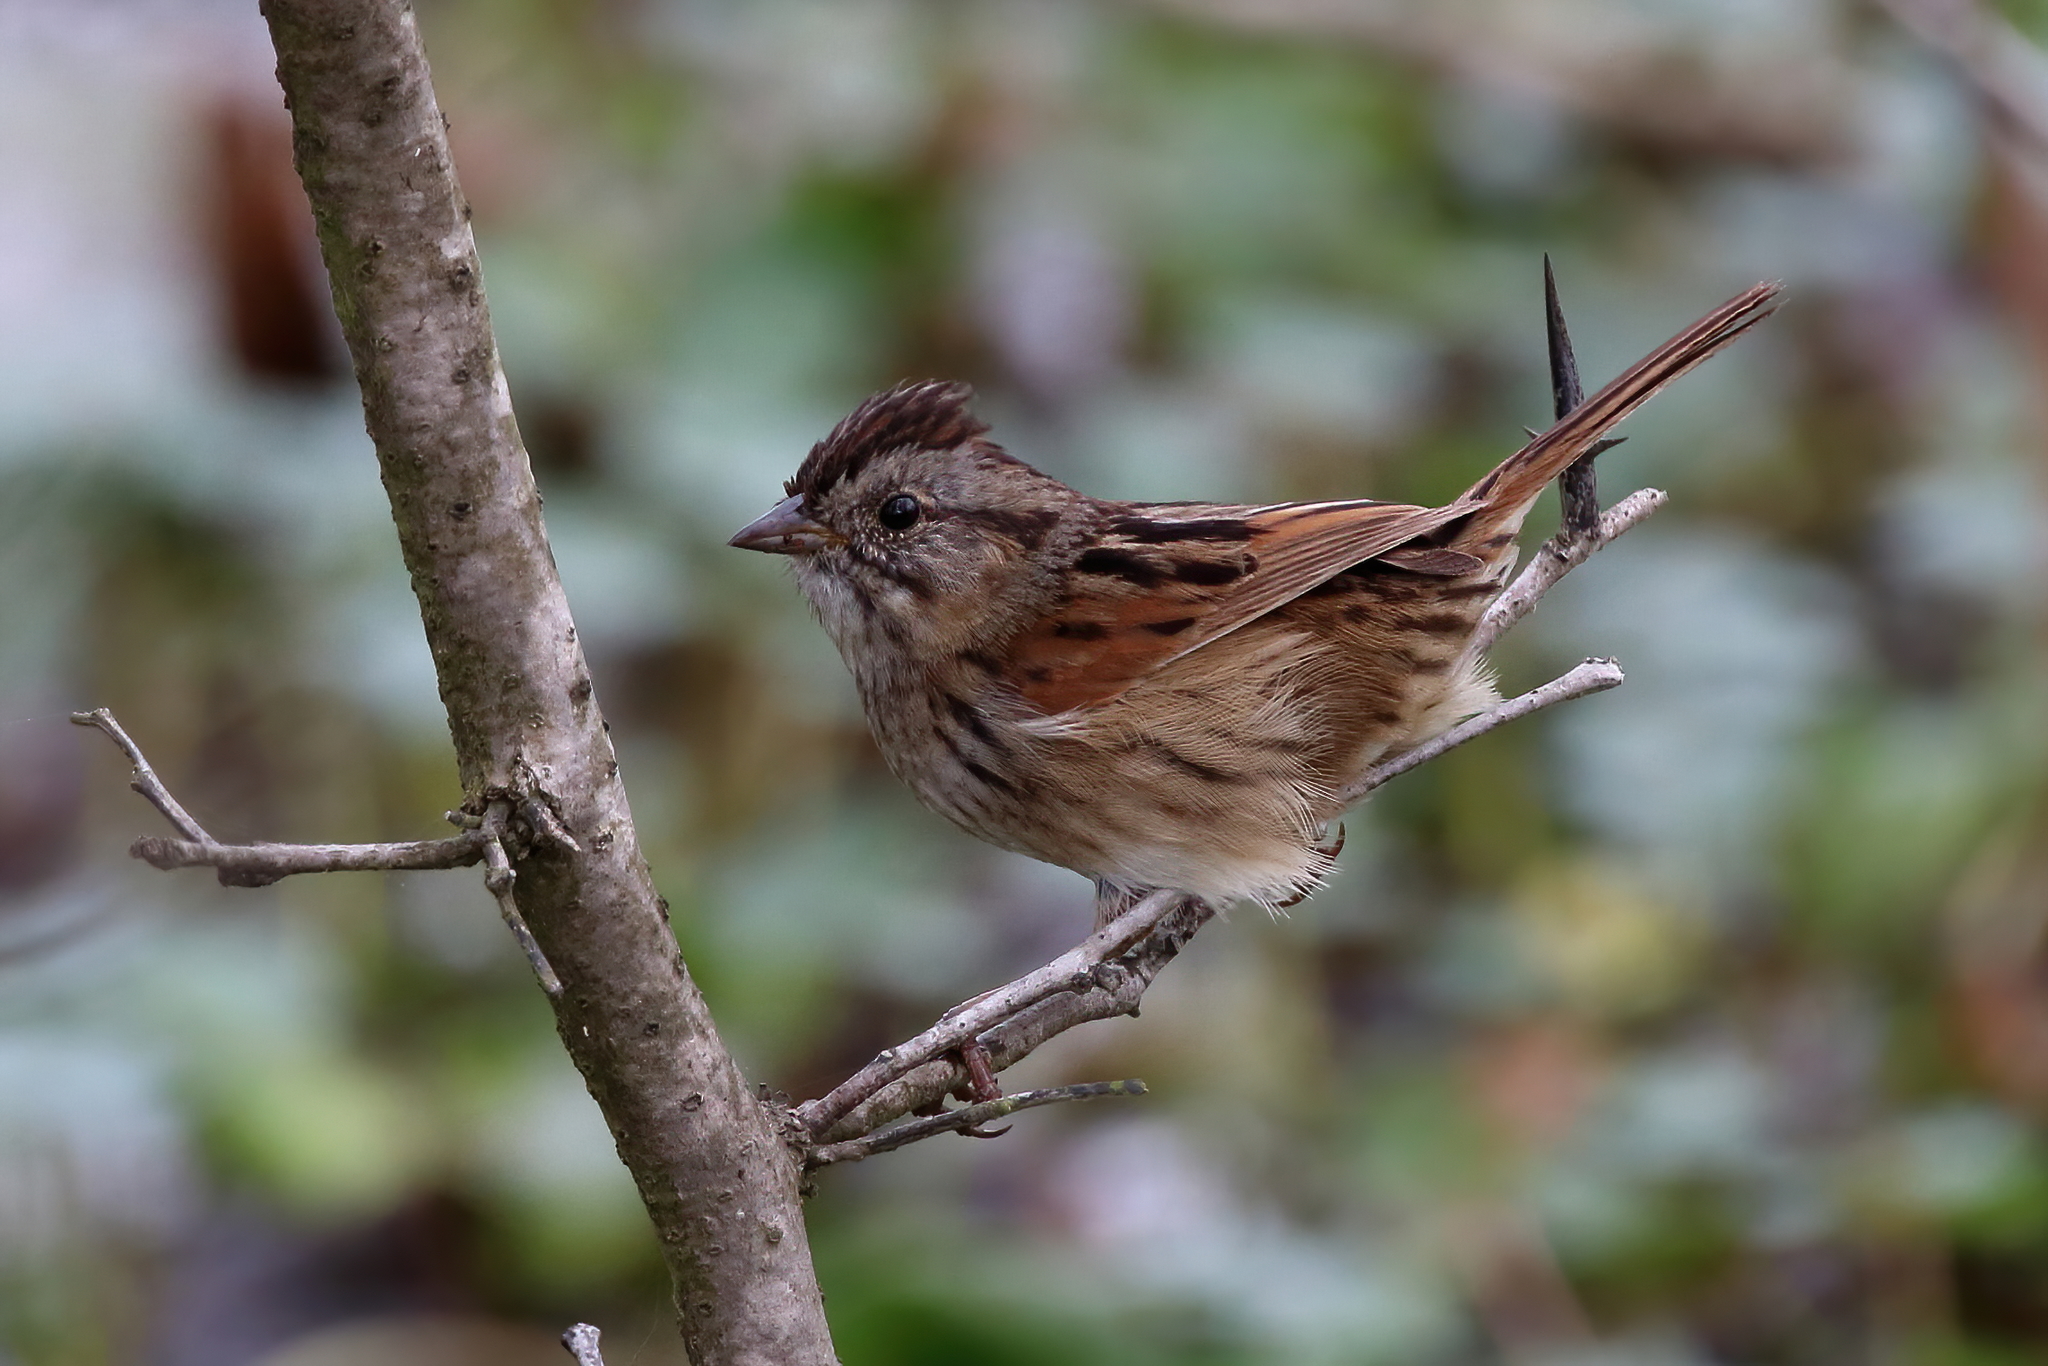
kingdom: Animalia
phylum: Chordata
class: Aves
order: Passeriformes
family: Passerellidae
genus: Melospiza
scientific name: Melospiza georgiana
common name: Swamp sparrow
